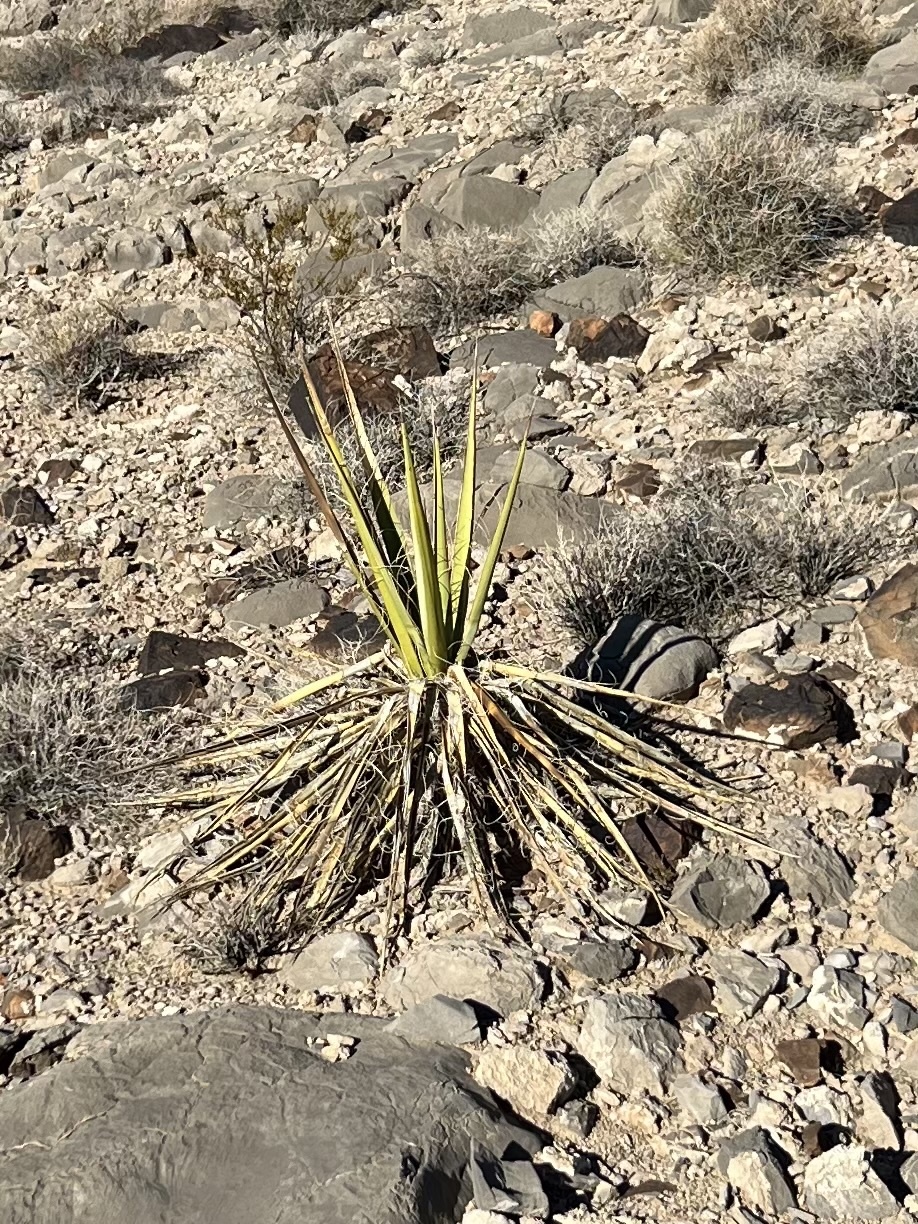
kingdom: Plantae
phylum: Tracheophyta
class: Liliopsida
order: Asparagales
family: Asparagaceae
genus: Yucca
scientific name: Yucca schidigera
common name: Mojave yucca
